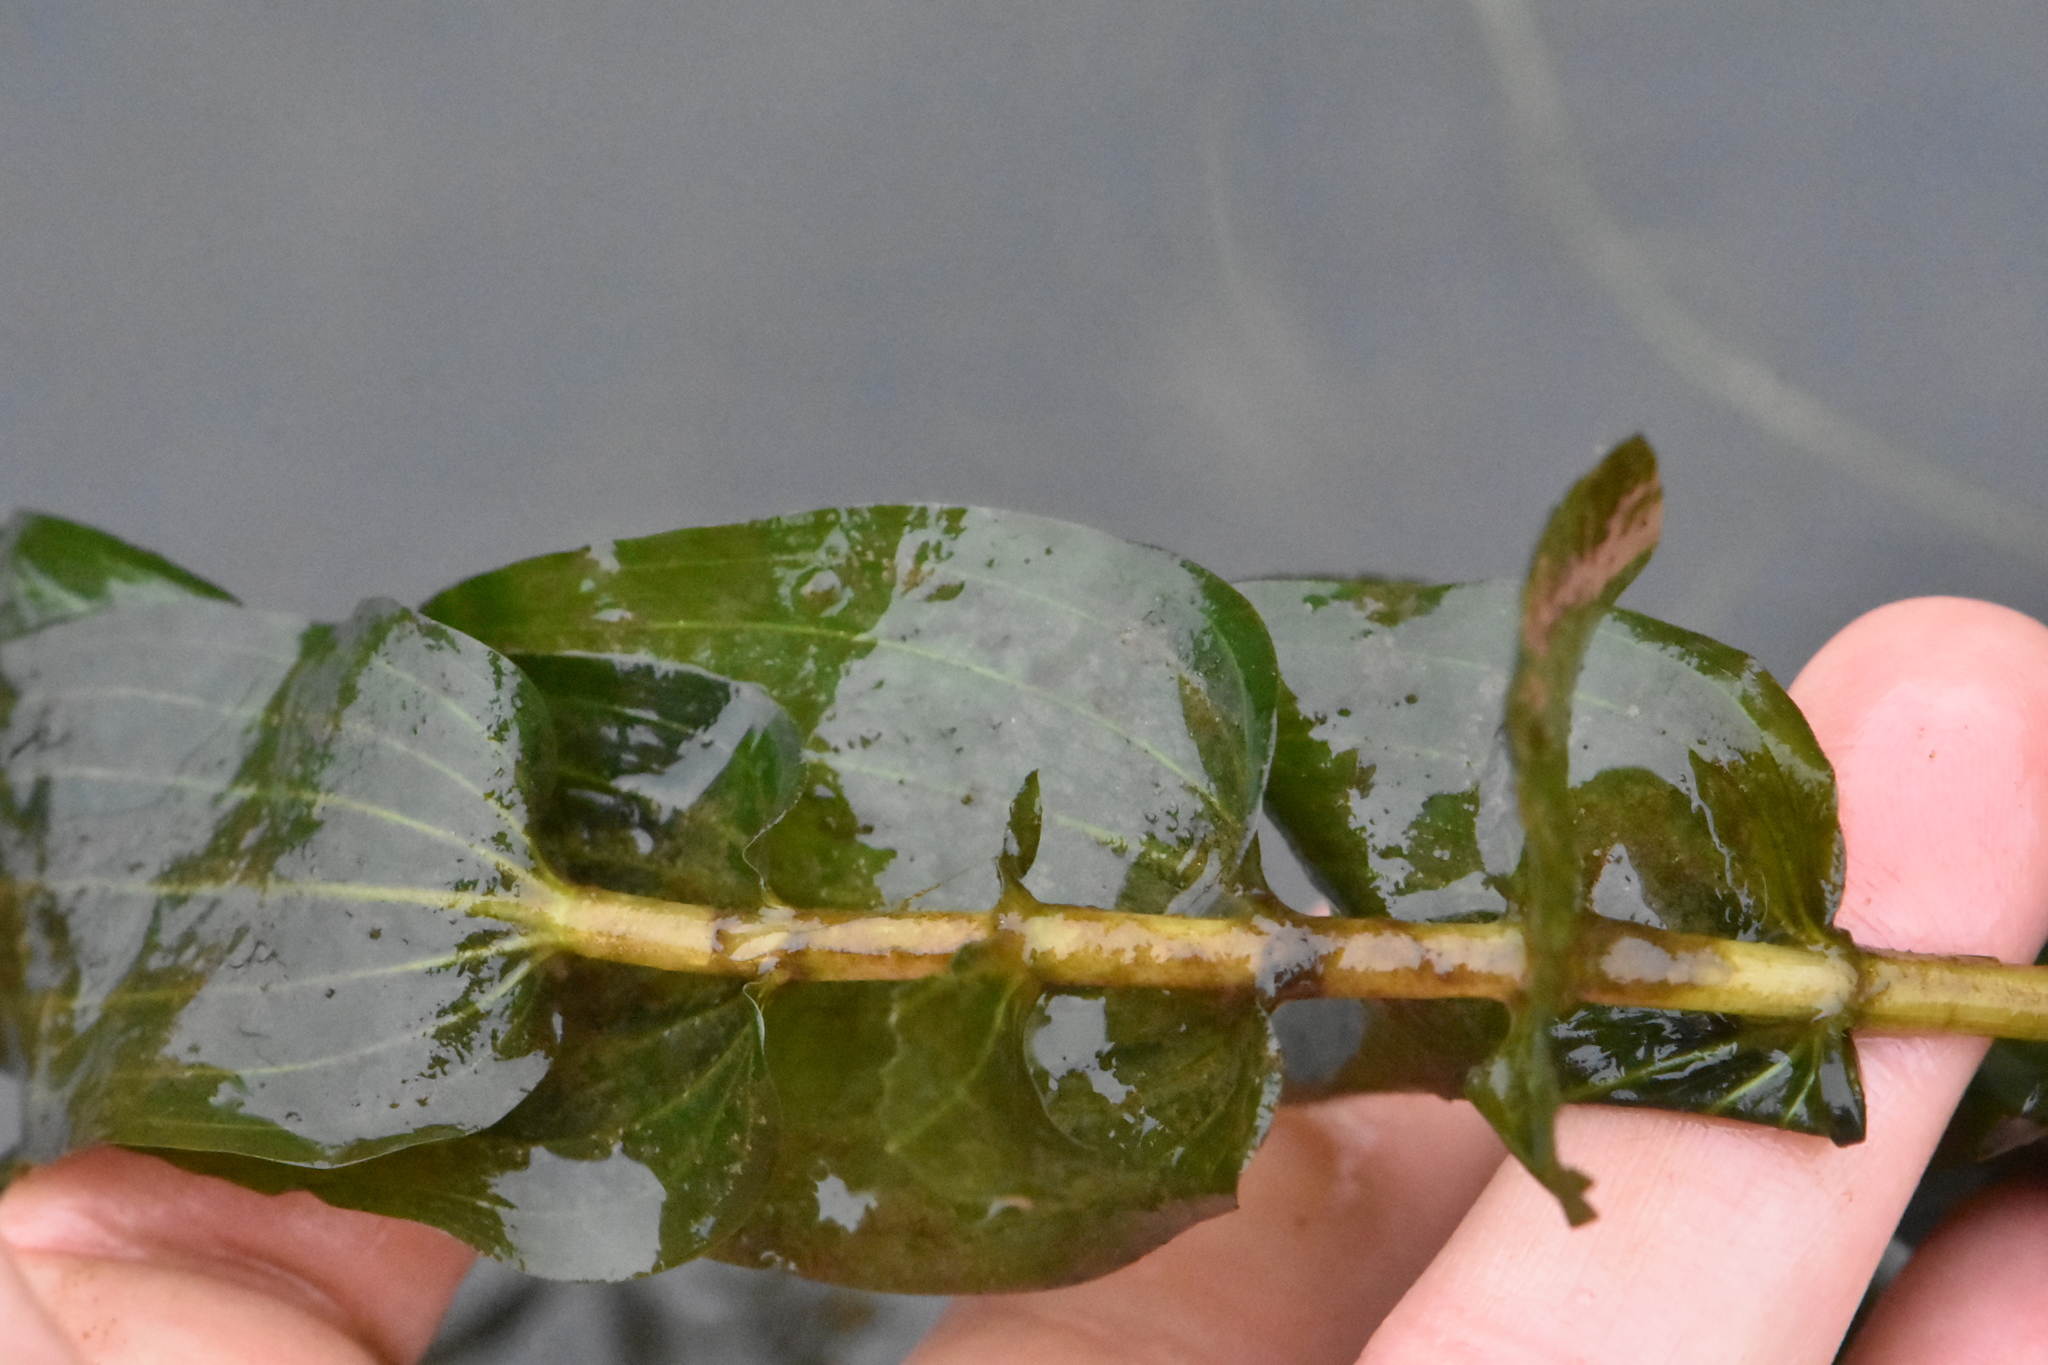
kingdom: Plantae
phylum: Tracheophyta
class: Liliopsida
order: Alismatales
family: Potamogetonaceae
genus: Potamogeton
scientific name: Potamogeton perfoliatus
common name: Perfoliate pondweed
